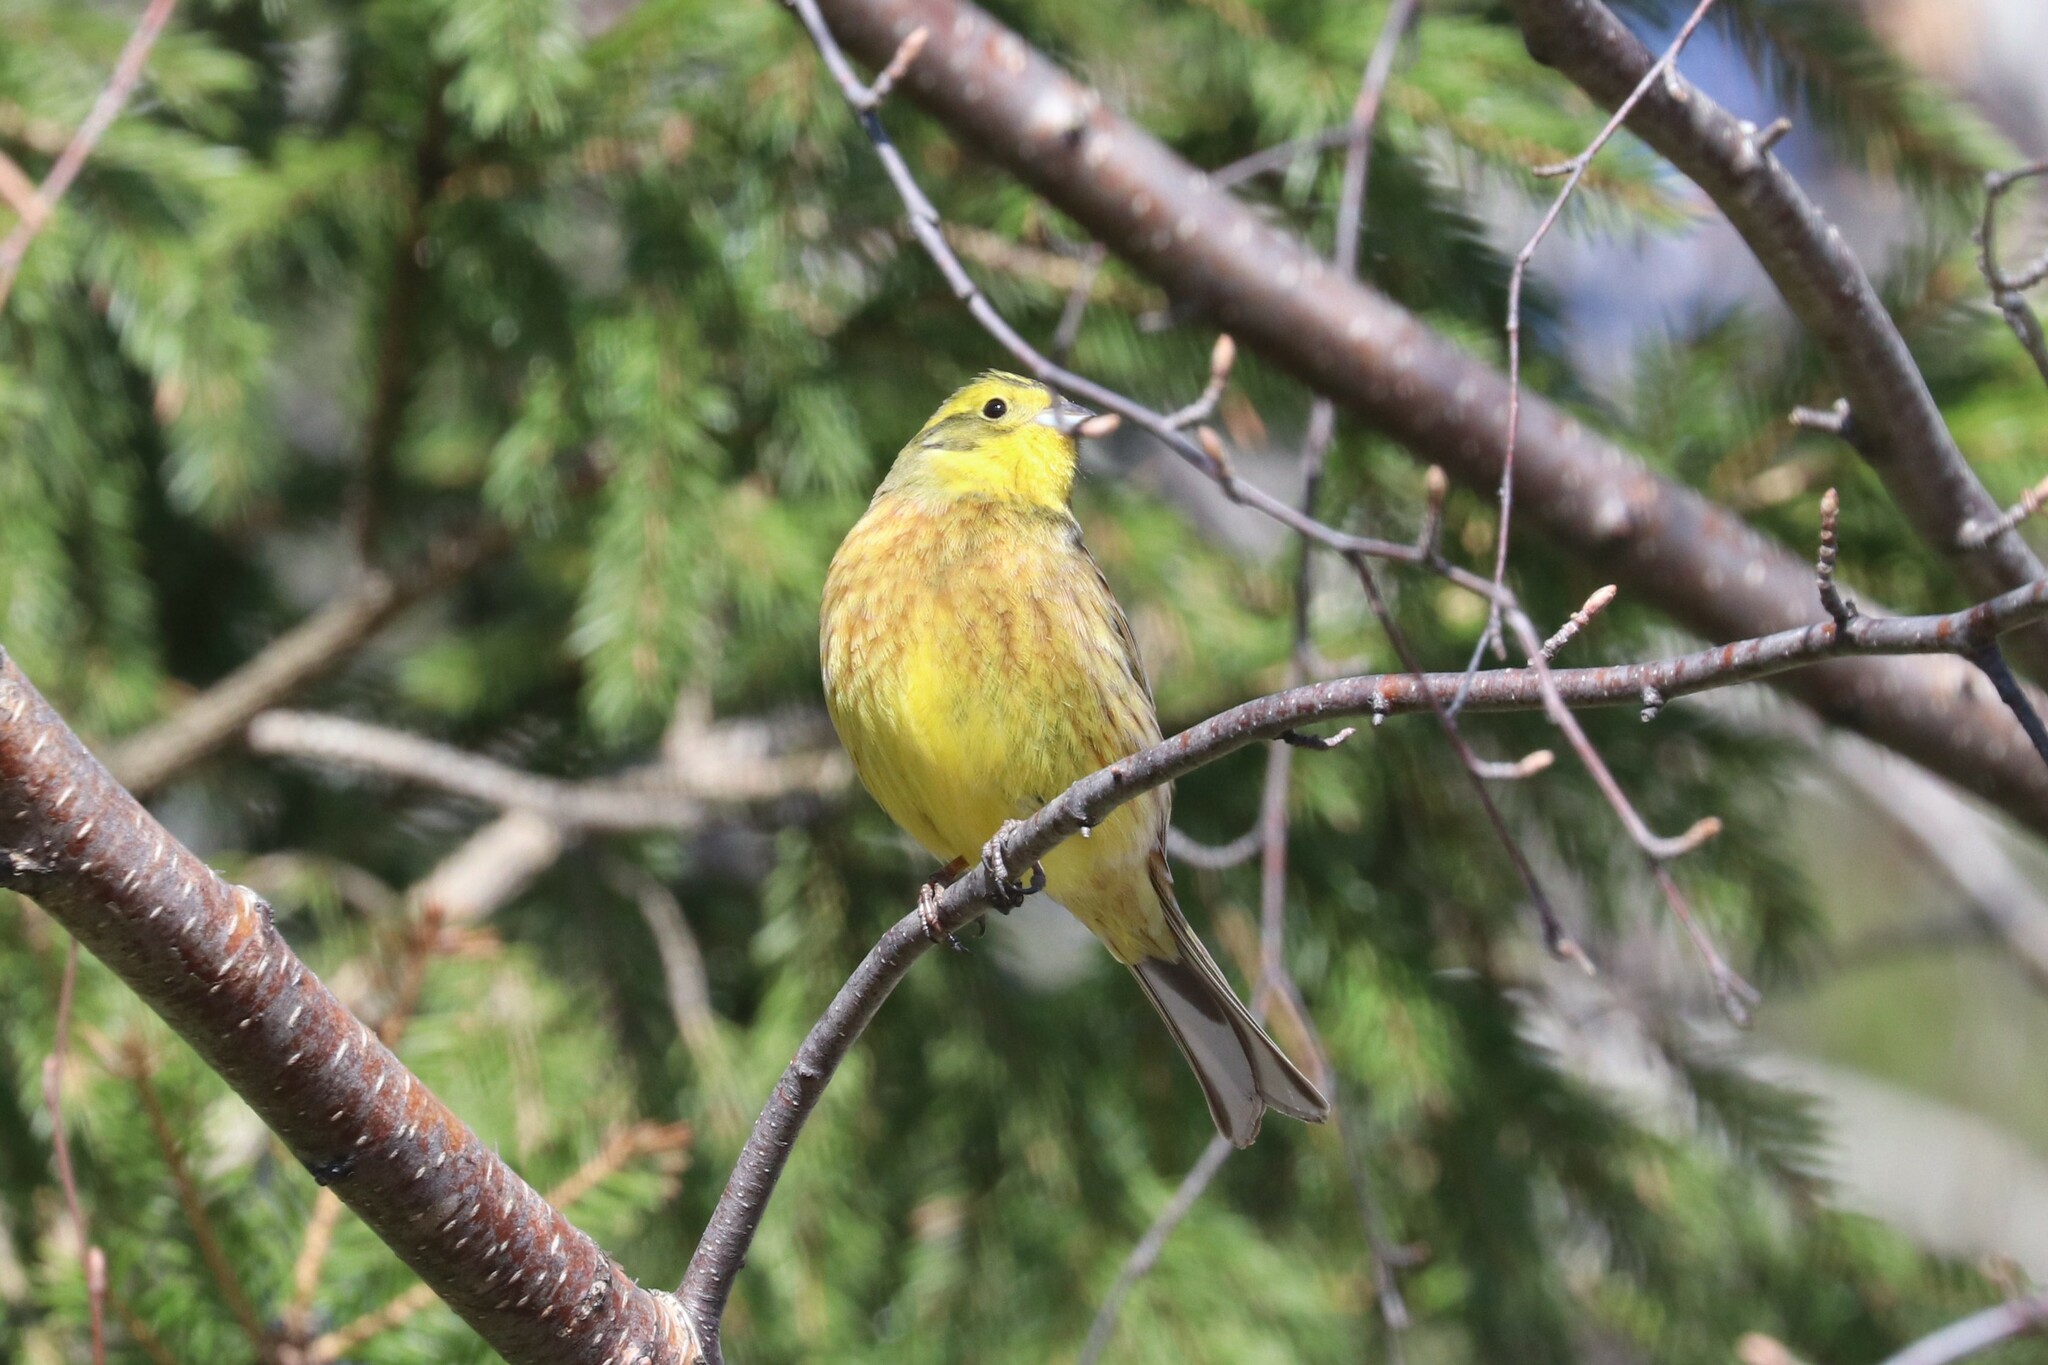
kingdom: Animalia
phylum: Chordata
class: Aves
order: Passeriformes
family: Emberizidae
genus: Emberiza
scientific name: Emberiza citrinella
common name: Yellowhammer
